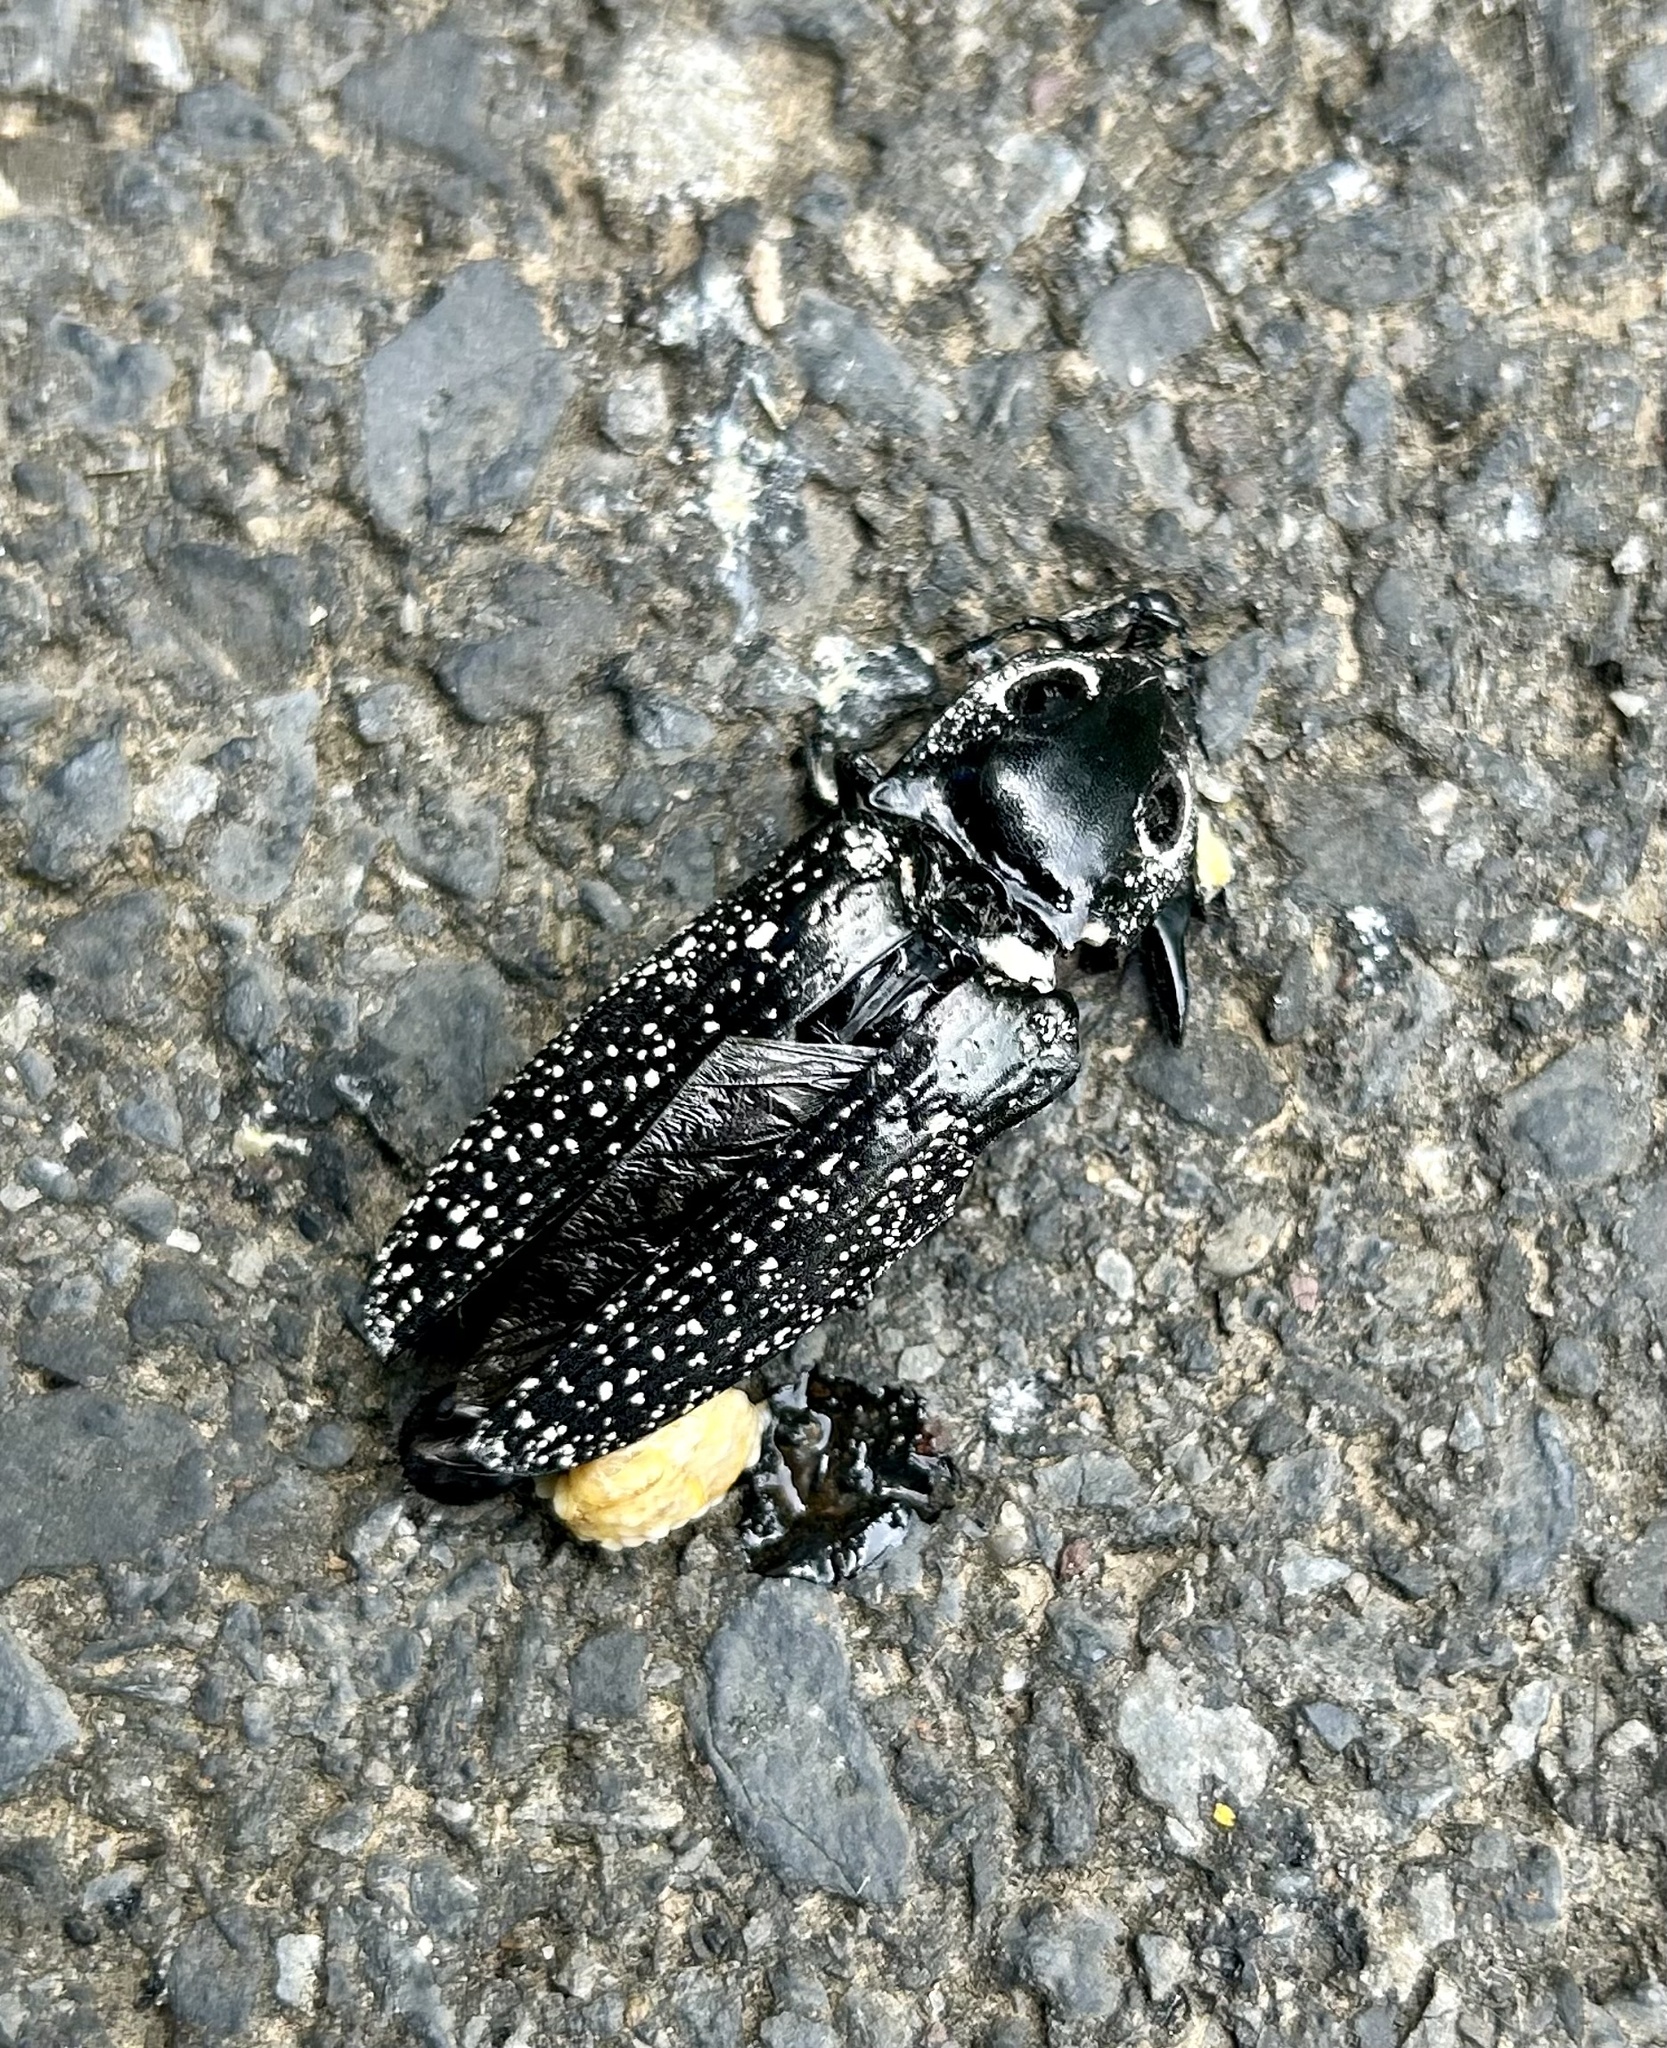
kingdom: Animalia
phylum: Arthropoda
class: Insecta
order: Coleoptera
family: Elateridae
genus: Alaus
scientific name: Alaus oculatus
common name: Eastern eyed click beetle
